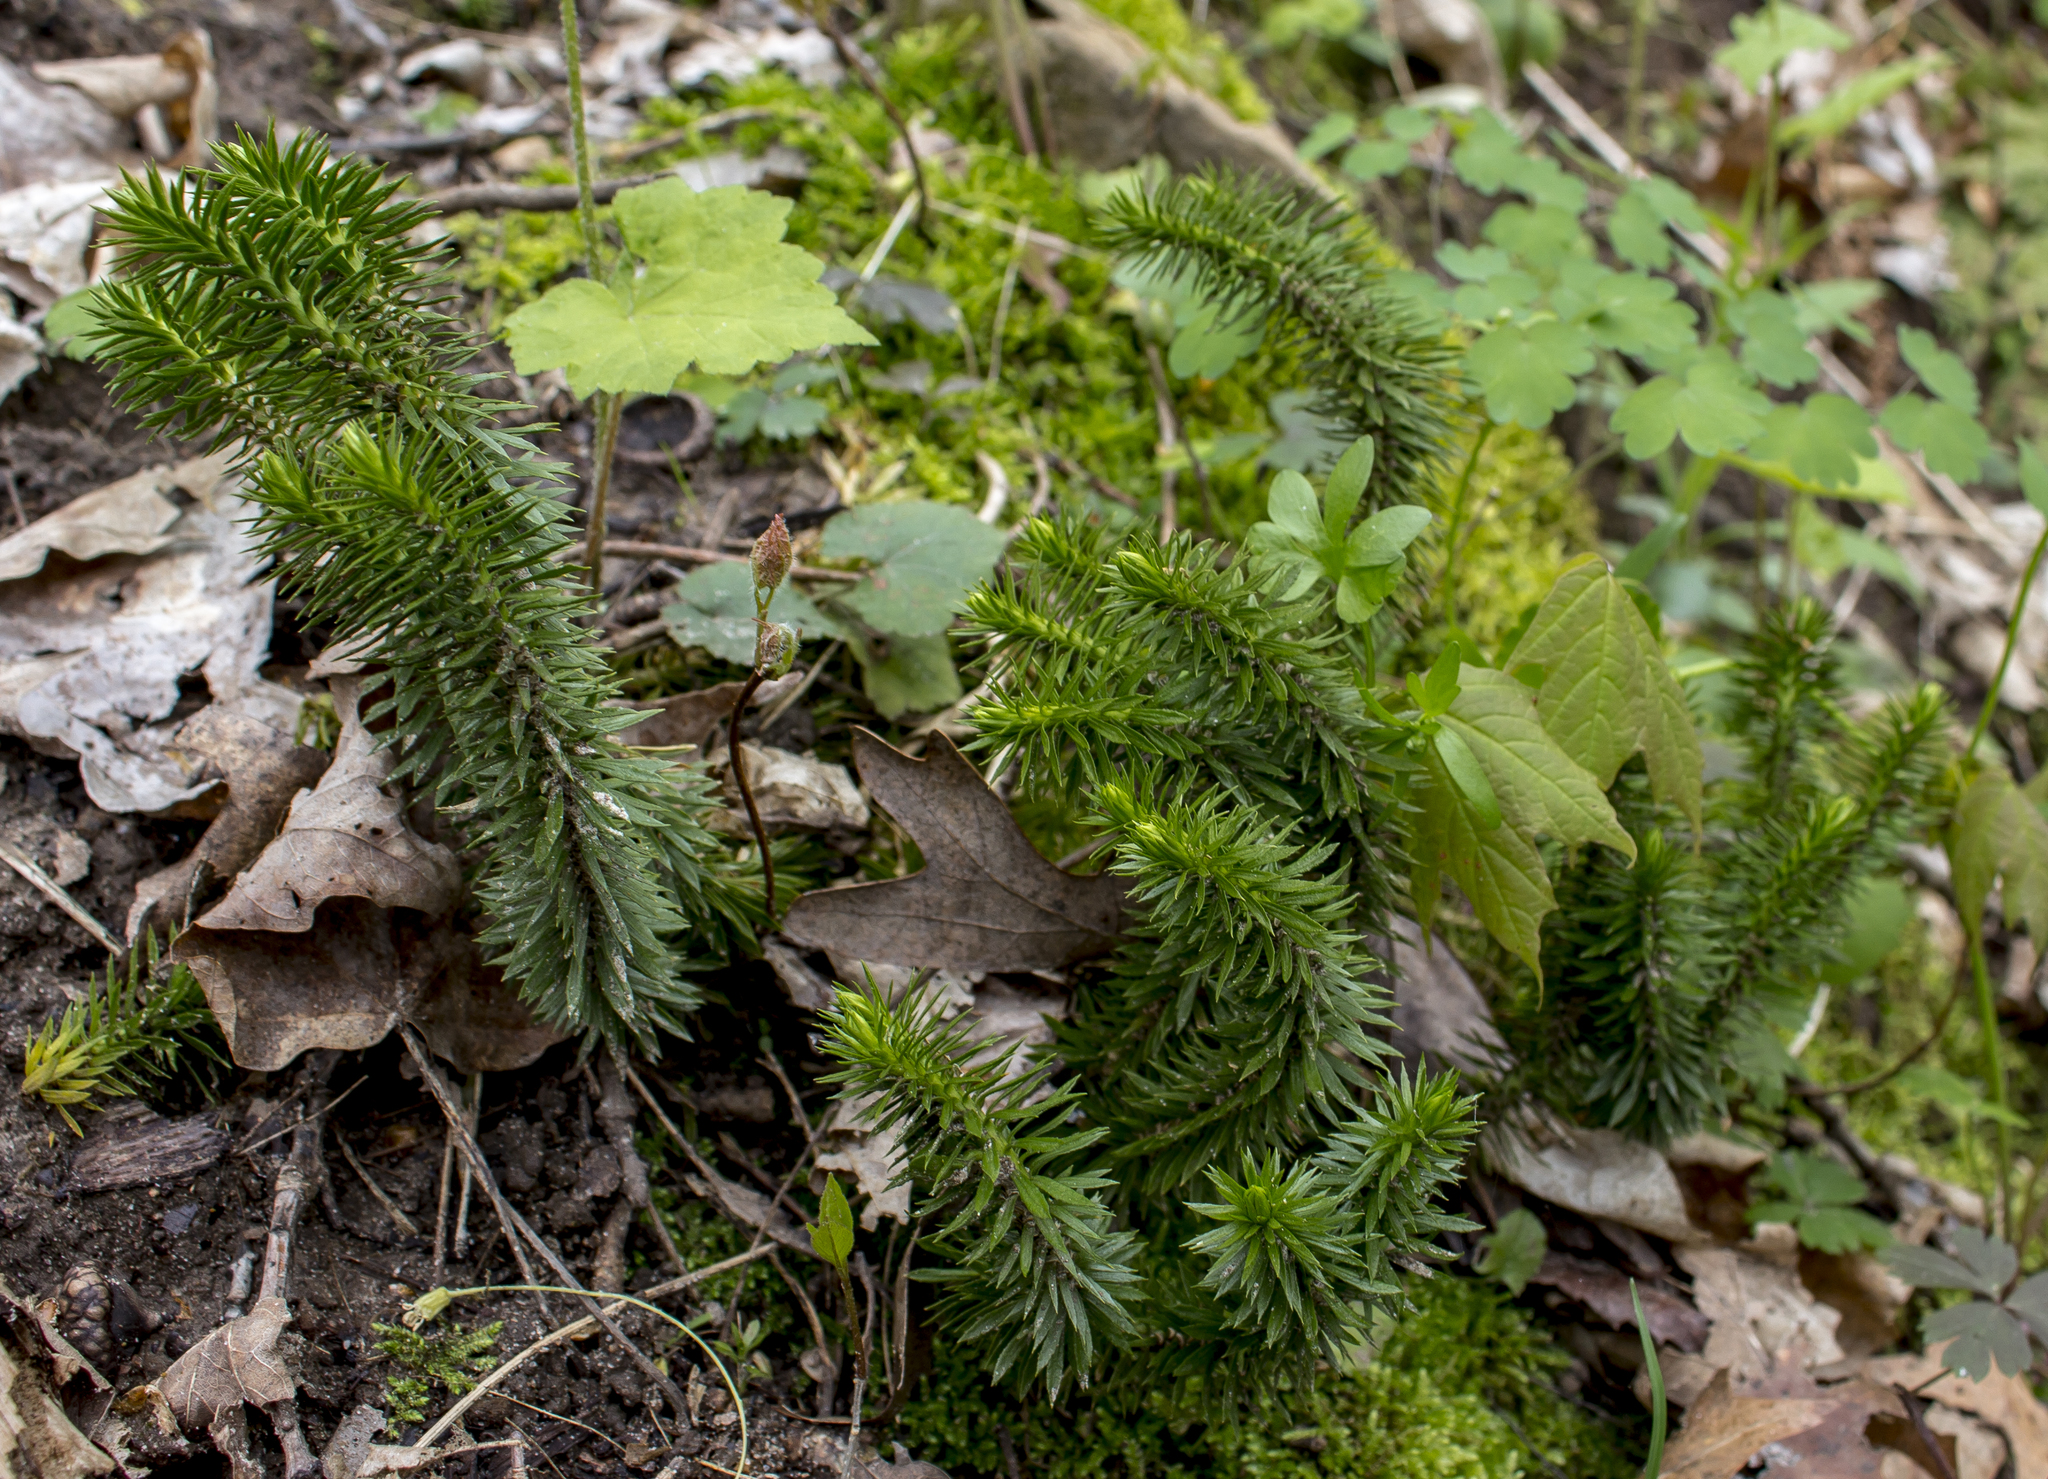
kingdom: Plantae
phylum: Tracheophyta
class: Lycopodiopsida
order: Lycopodiales
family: Lycopodiaceae
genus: Huperzia
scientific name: Huperzia lucidula
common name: Shining clubmoss
